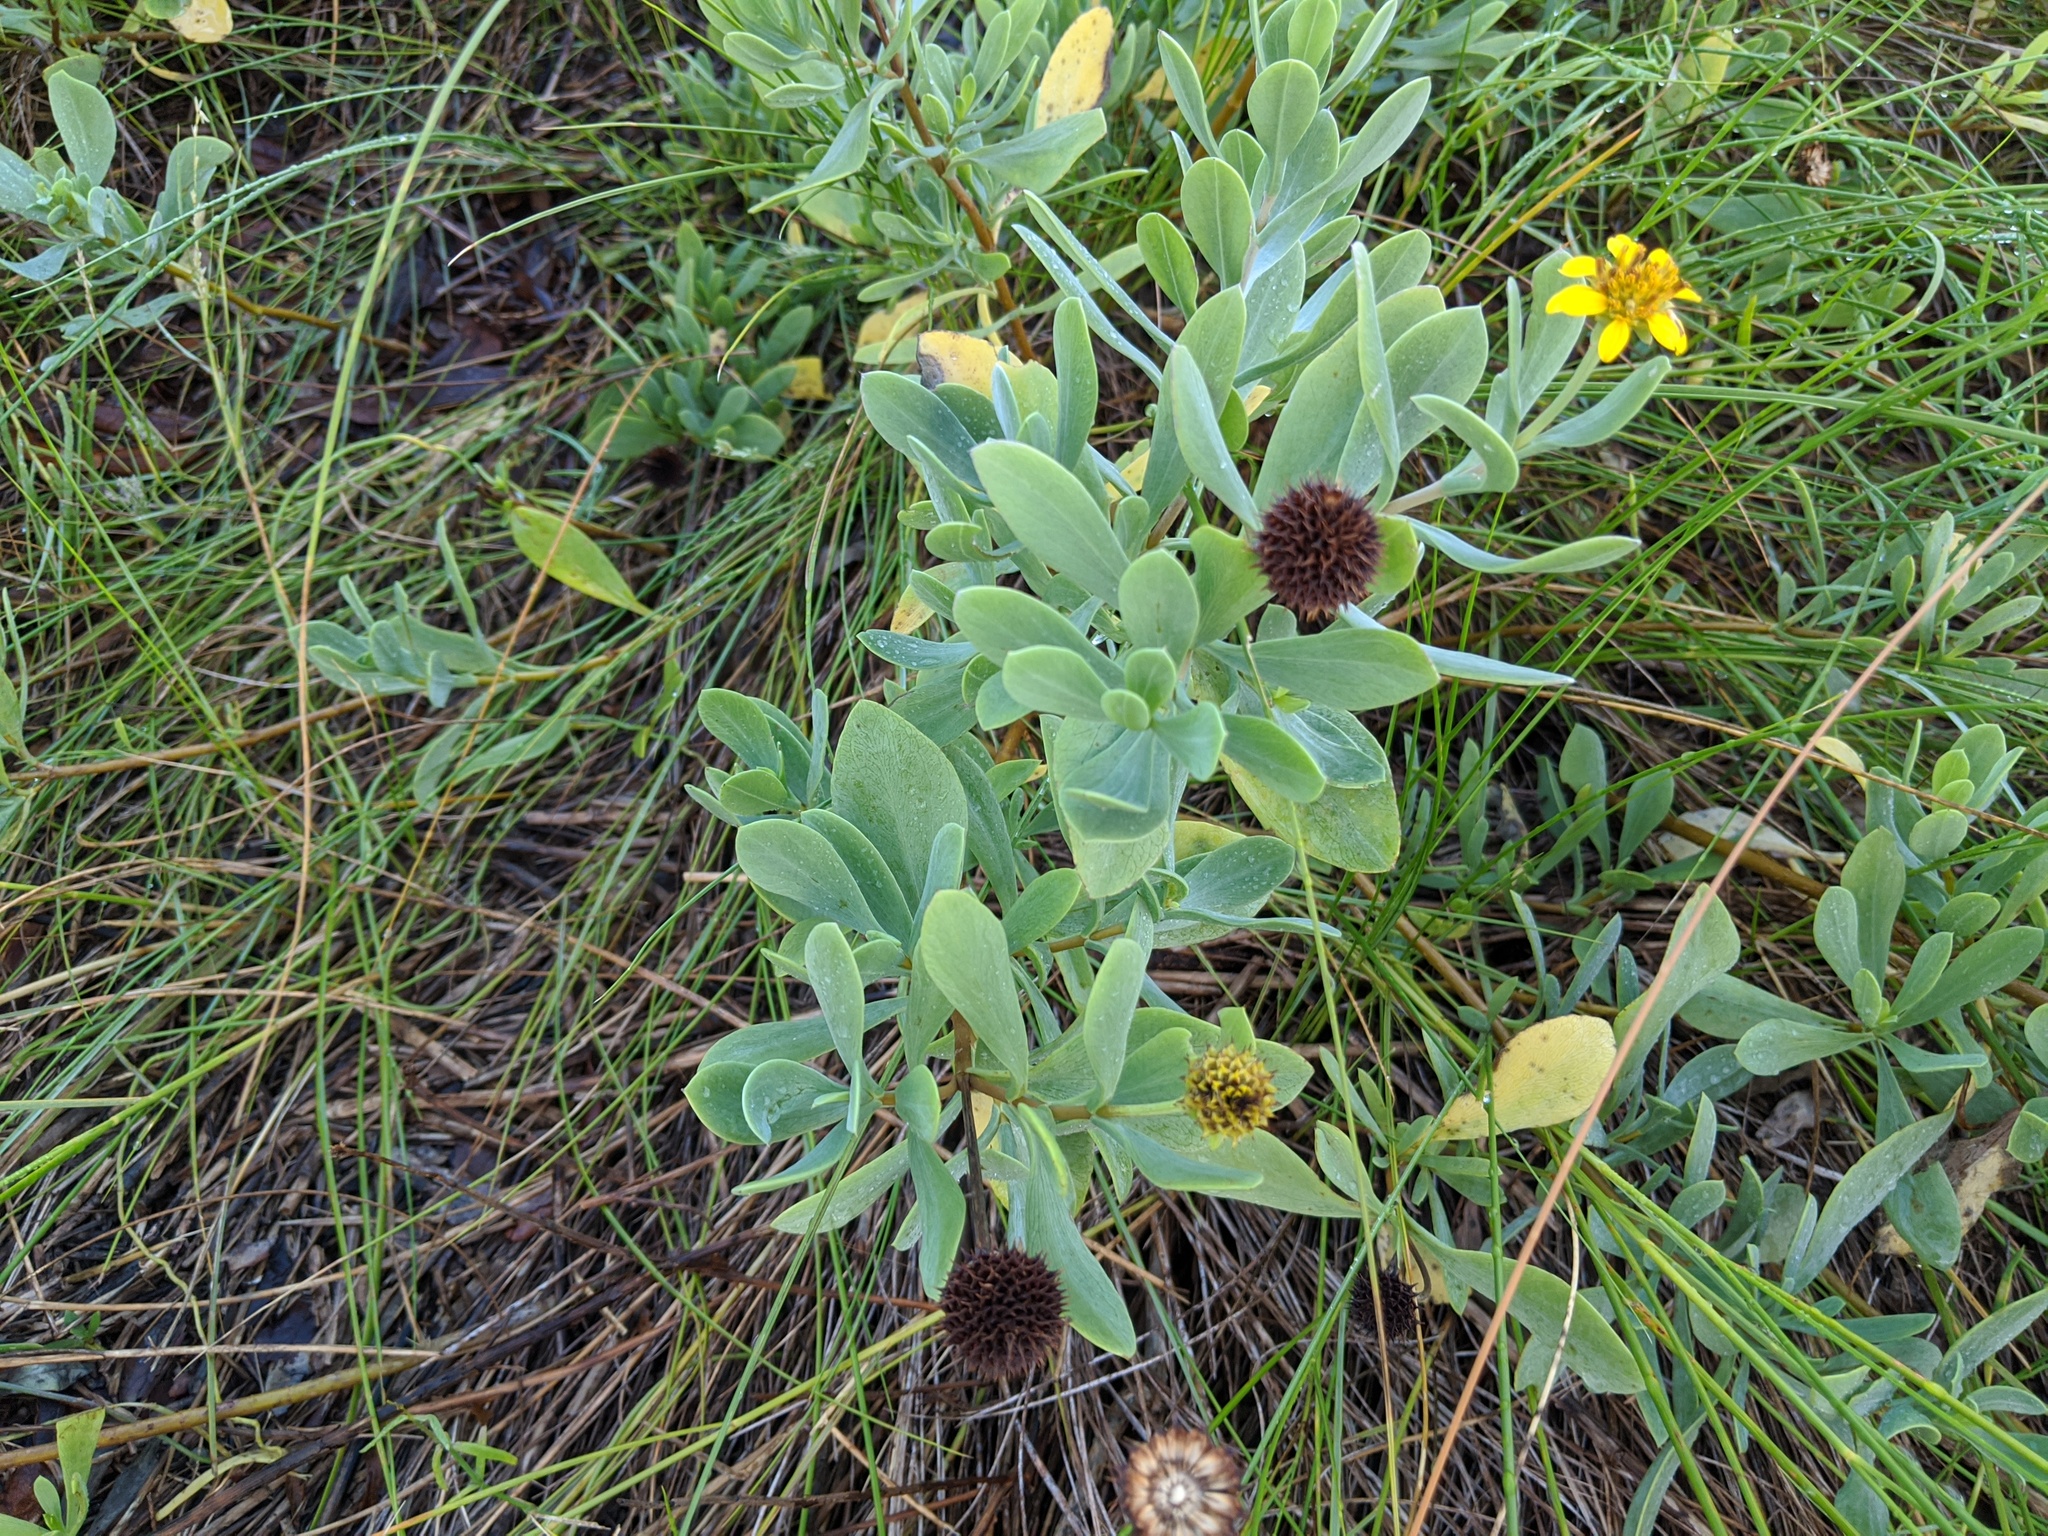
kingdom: Plantae
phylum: Tracheophyta
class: Magnoliopsida
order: Asterales
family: Asteraceae
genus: Borrichia
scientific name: Borrichia frutescens
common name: Sea oxeye
